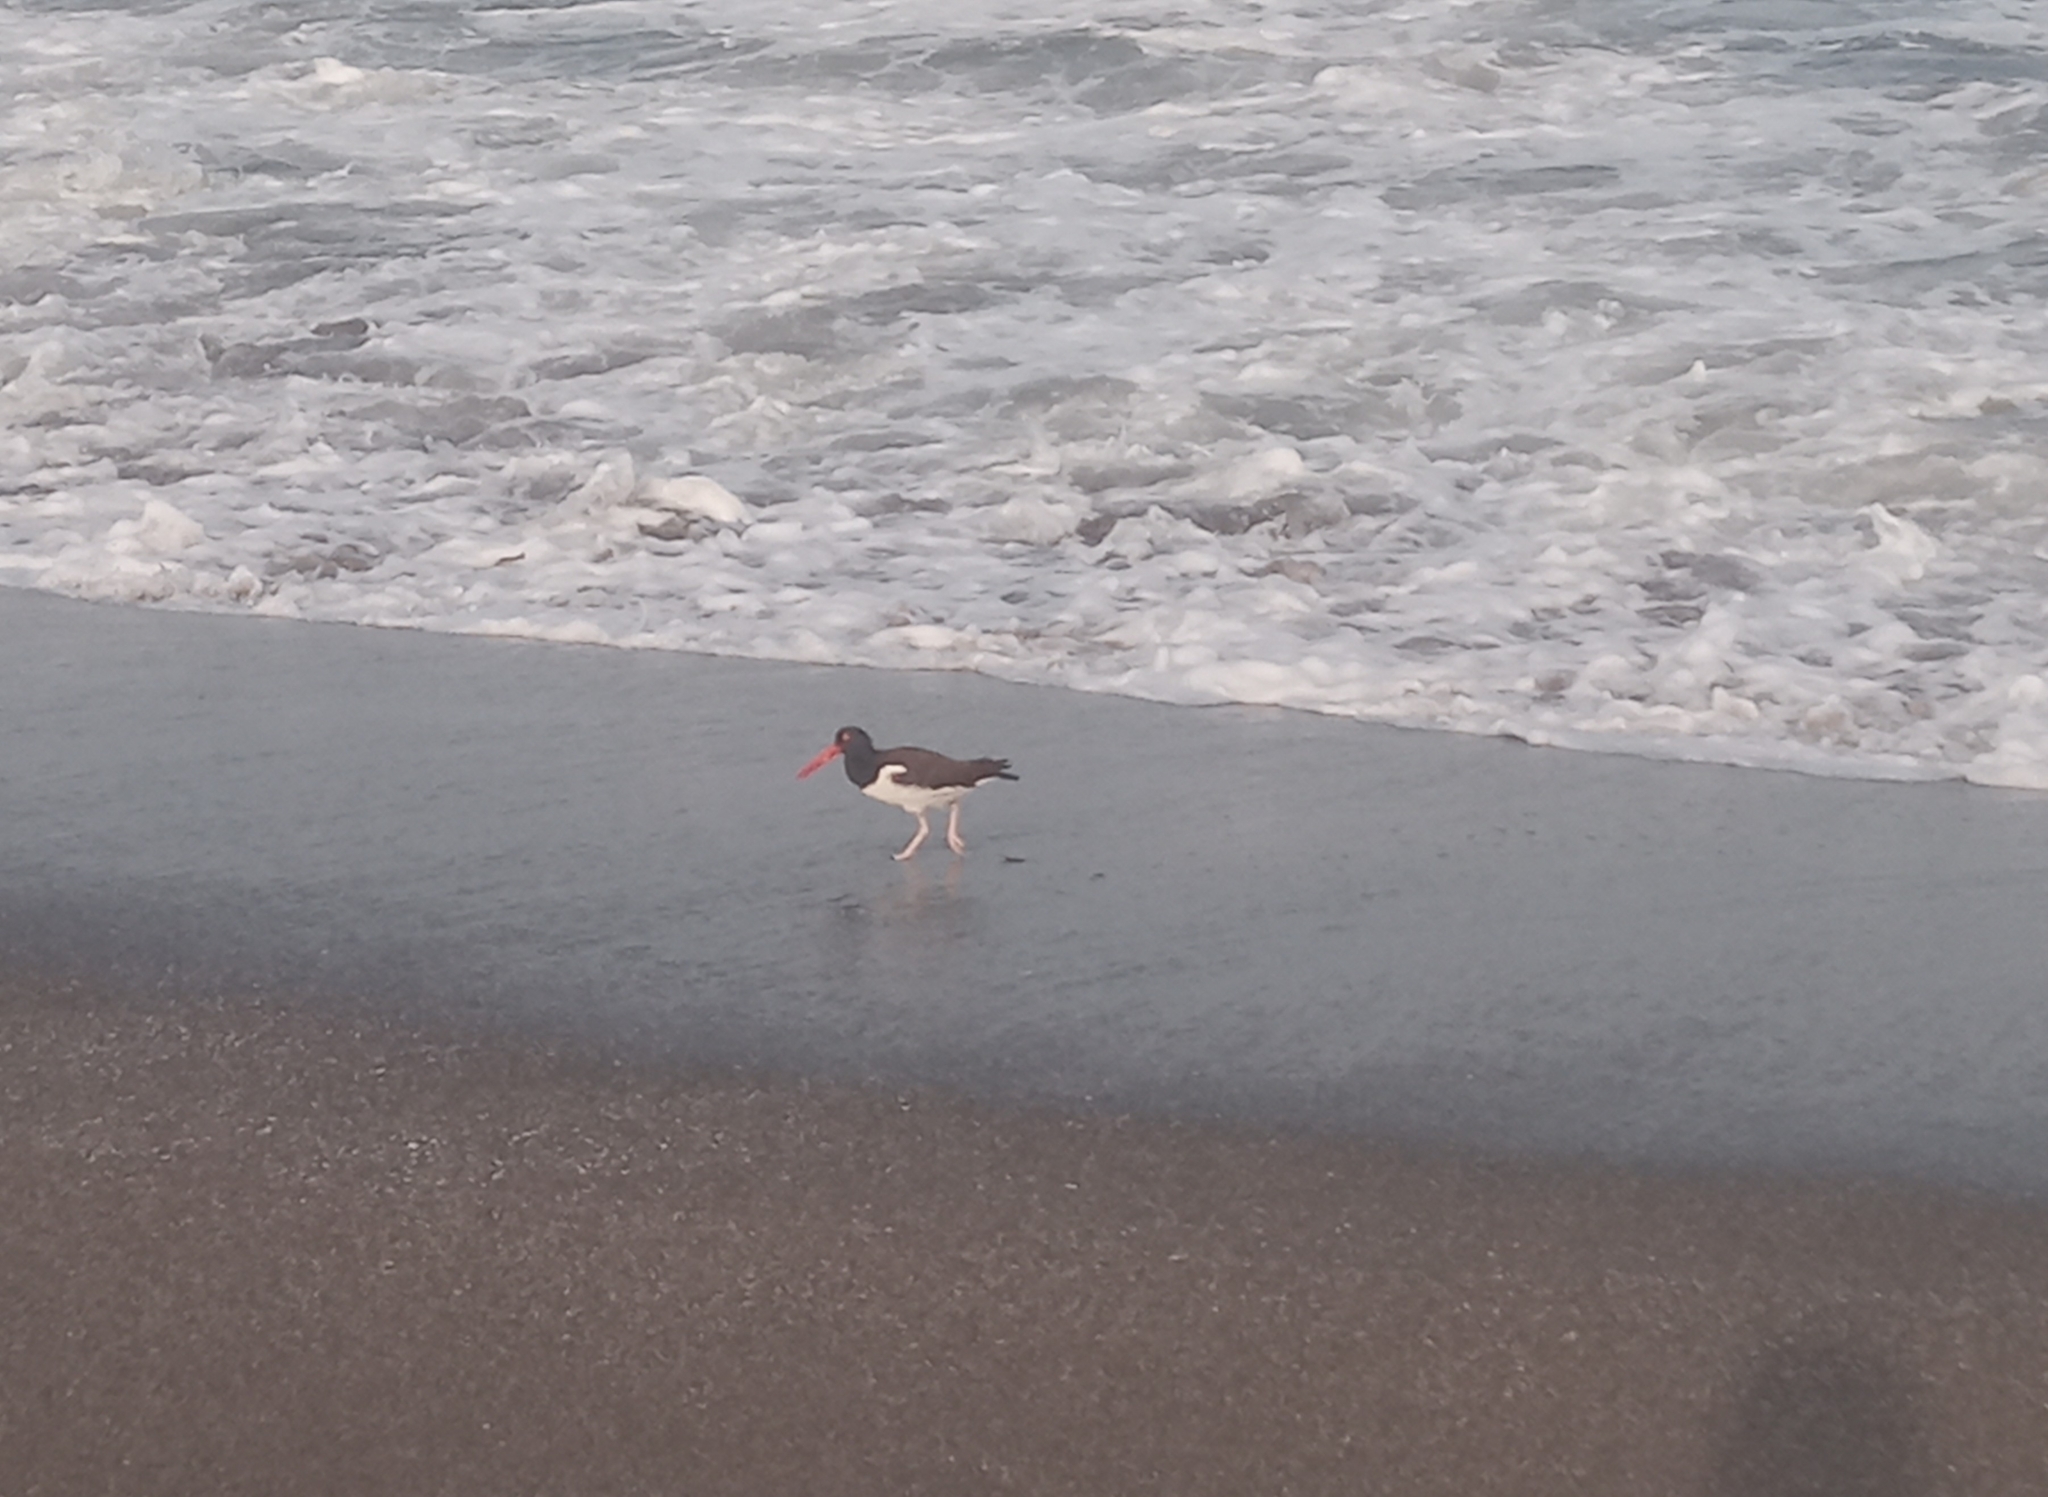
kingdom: Animalia
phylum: Chordata
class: Aves
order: Charadriiformes
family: Haematopodidae
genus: Haematopus
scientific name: Haematopus palliatus
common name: American oystercatcher
